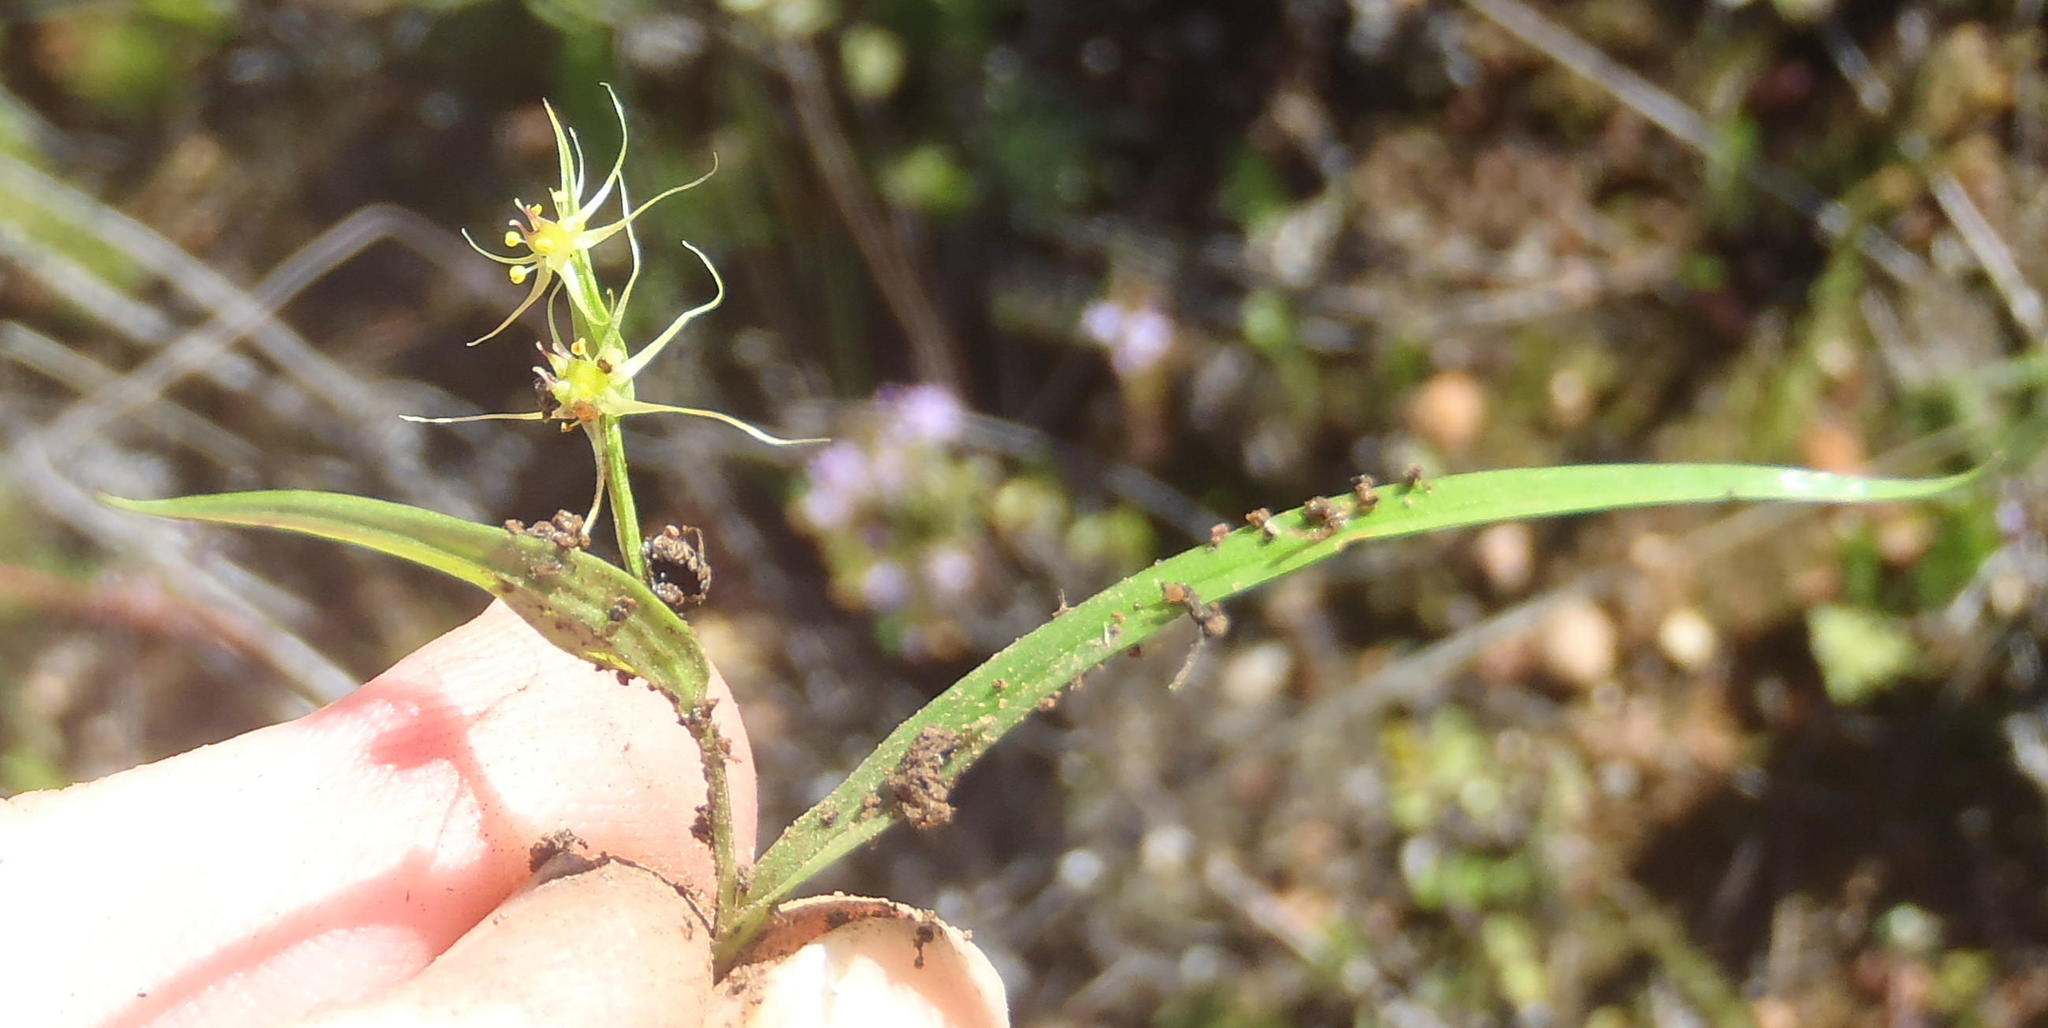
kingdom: Plantae
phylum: Tracheophyta
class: Liliopsida
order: Liliales
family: Colchicaceae
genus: Wurmbea
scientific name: Wurmbea glassii
